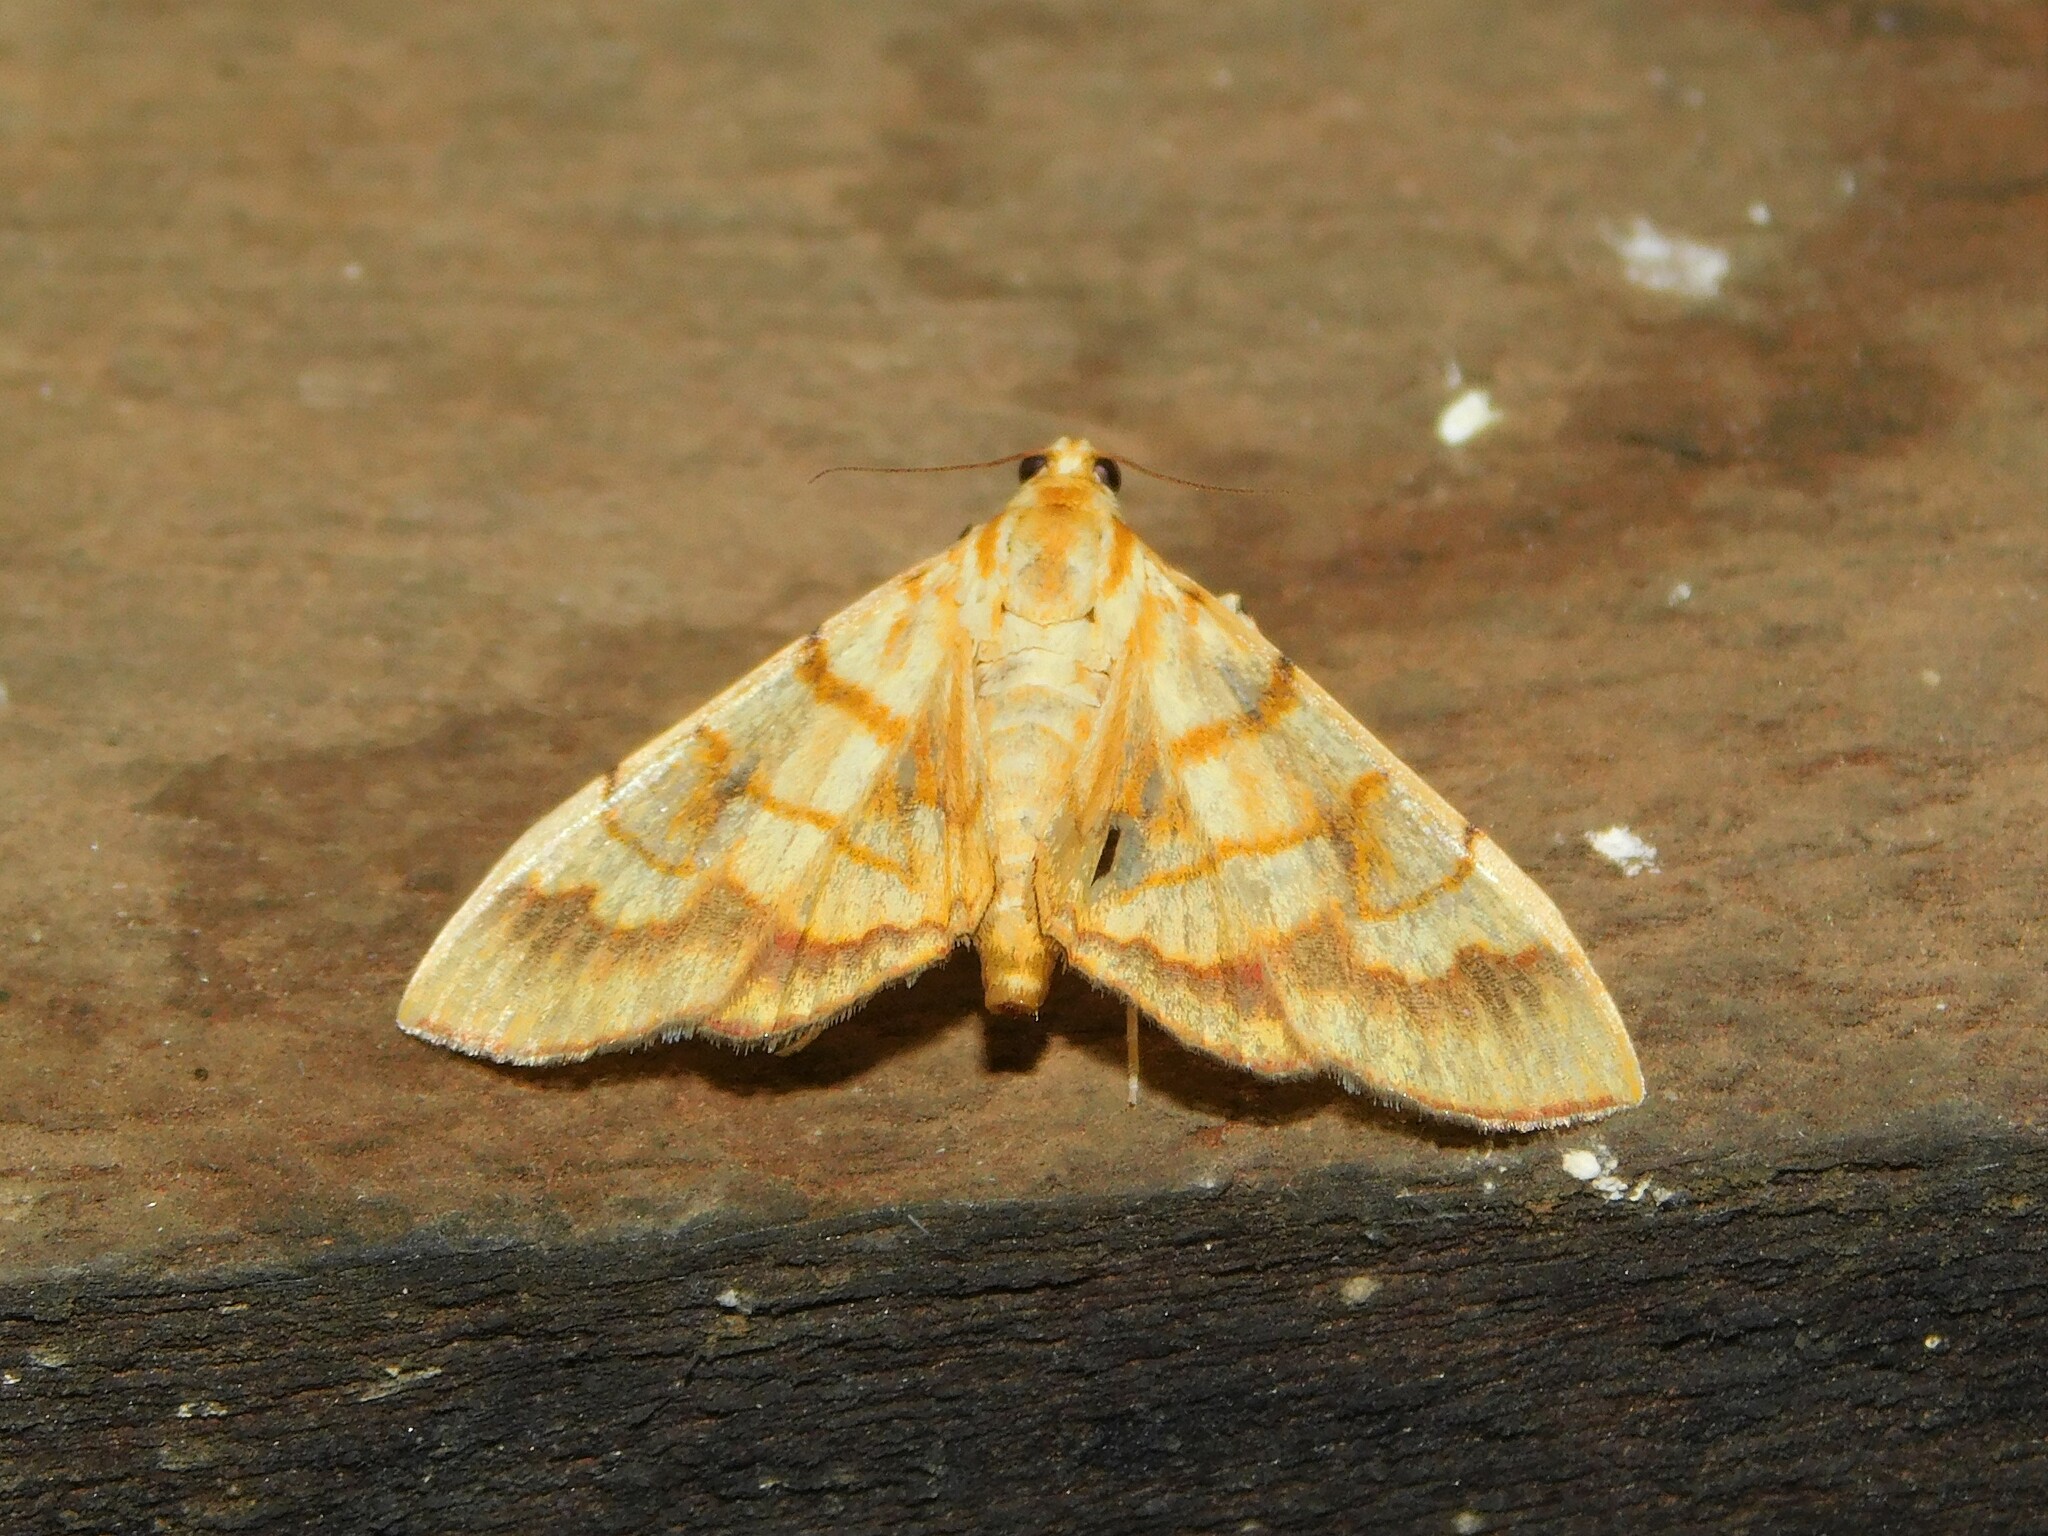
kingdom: Animalia
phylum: Arthropoda
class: Insecta
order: Lepidoptera
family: Crambidae
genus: Cryptosara
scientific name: Cryptosara caritalis
